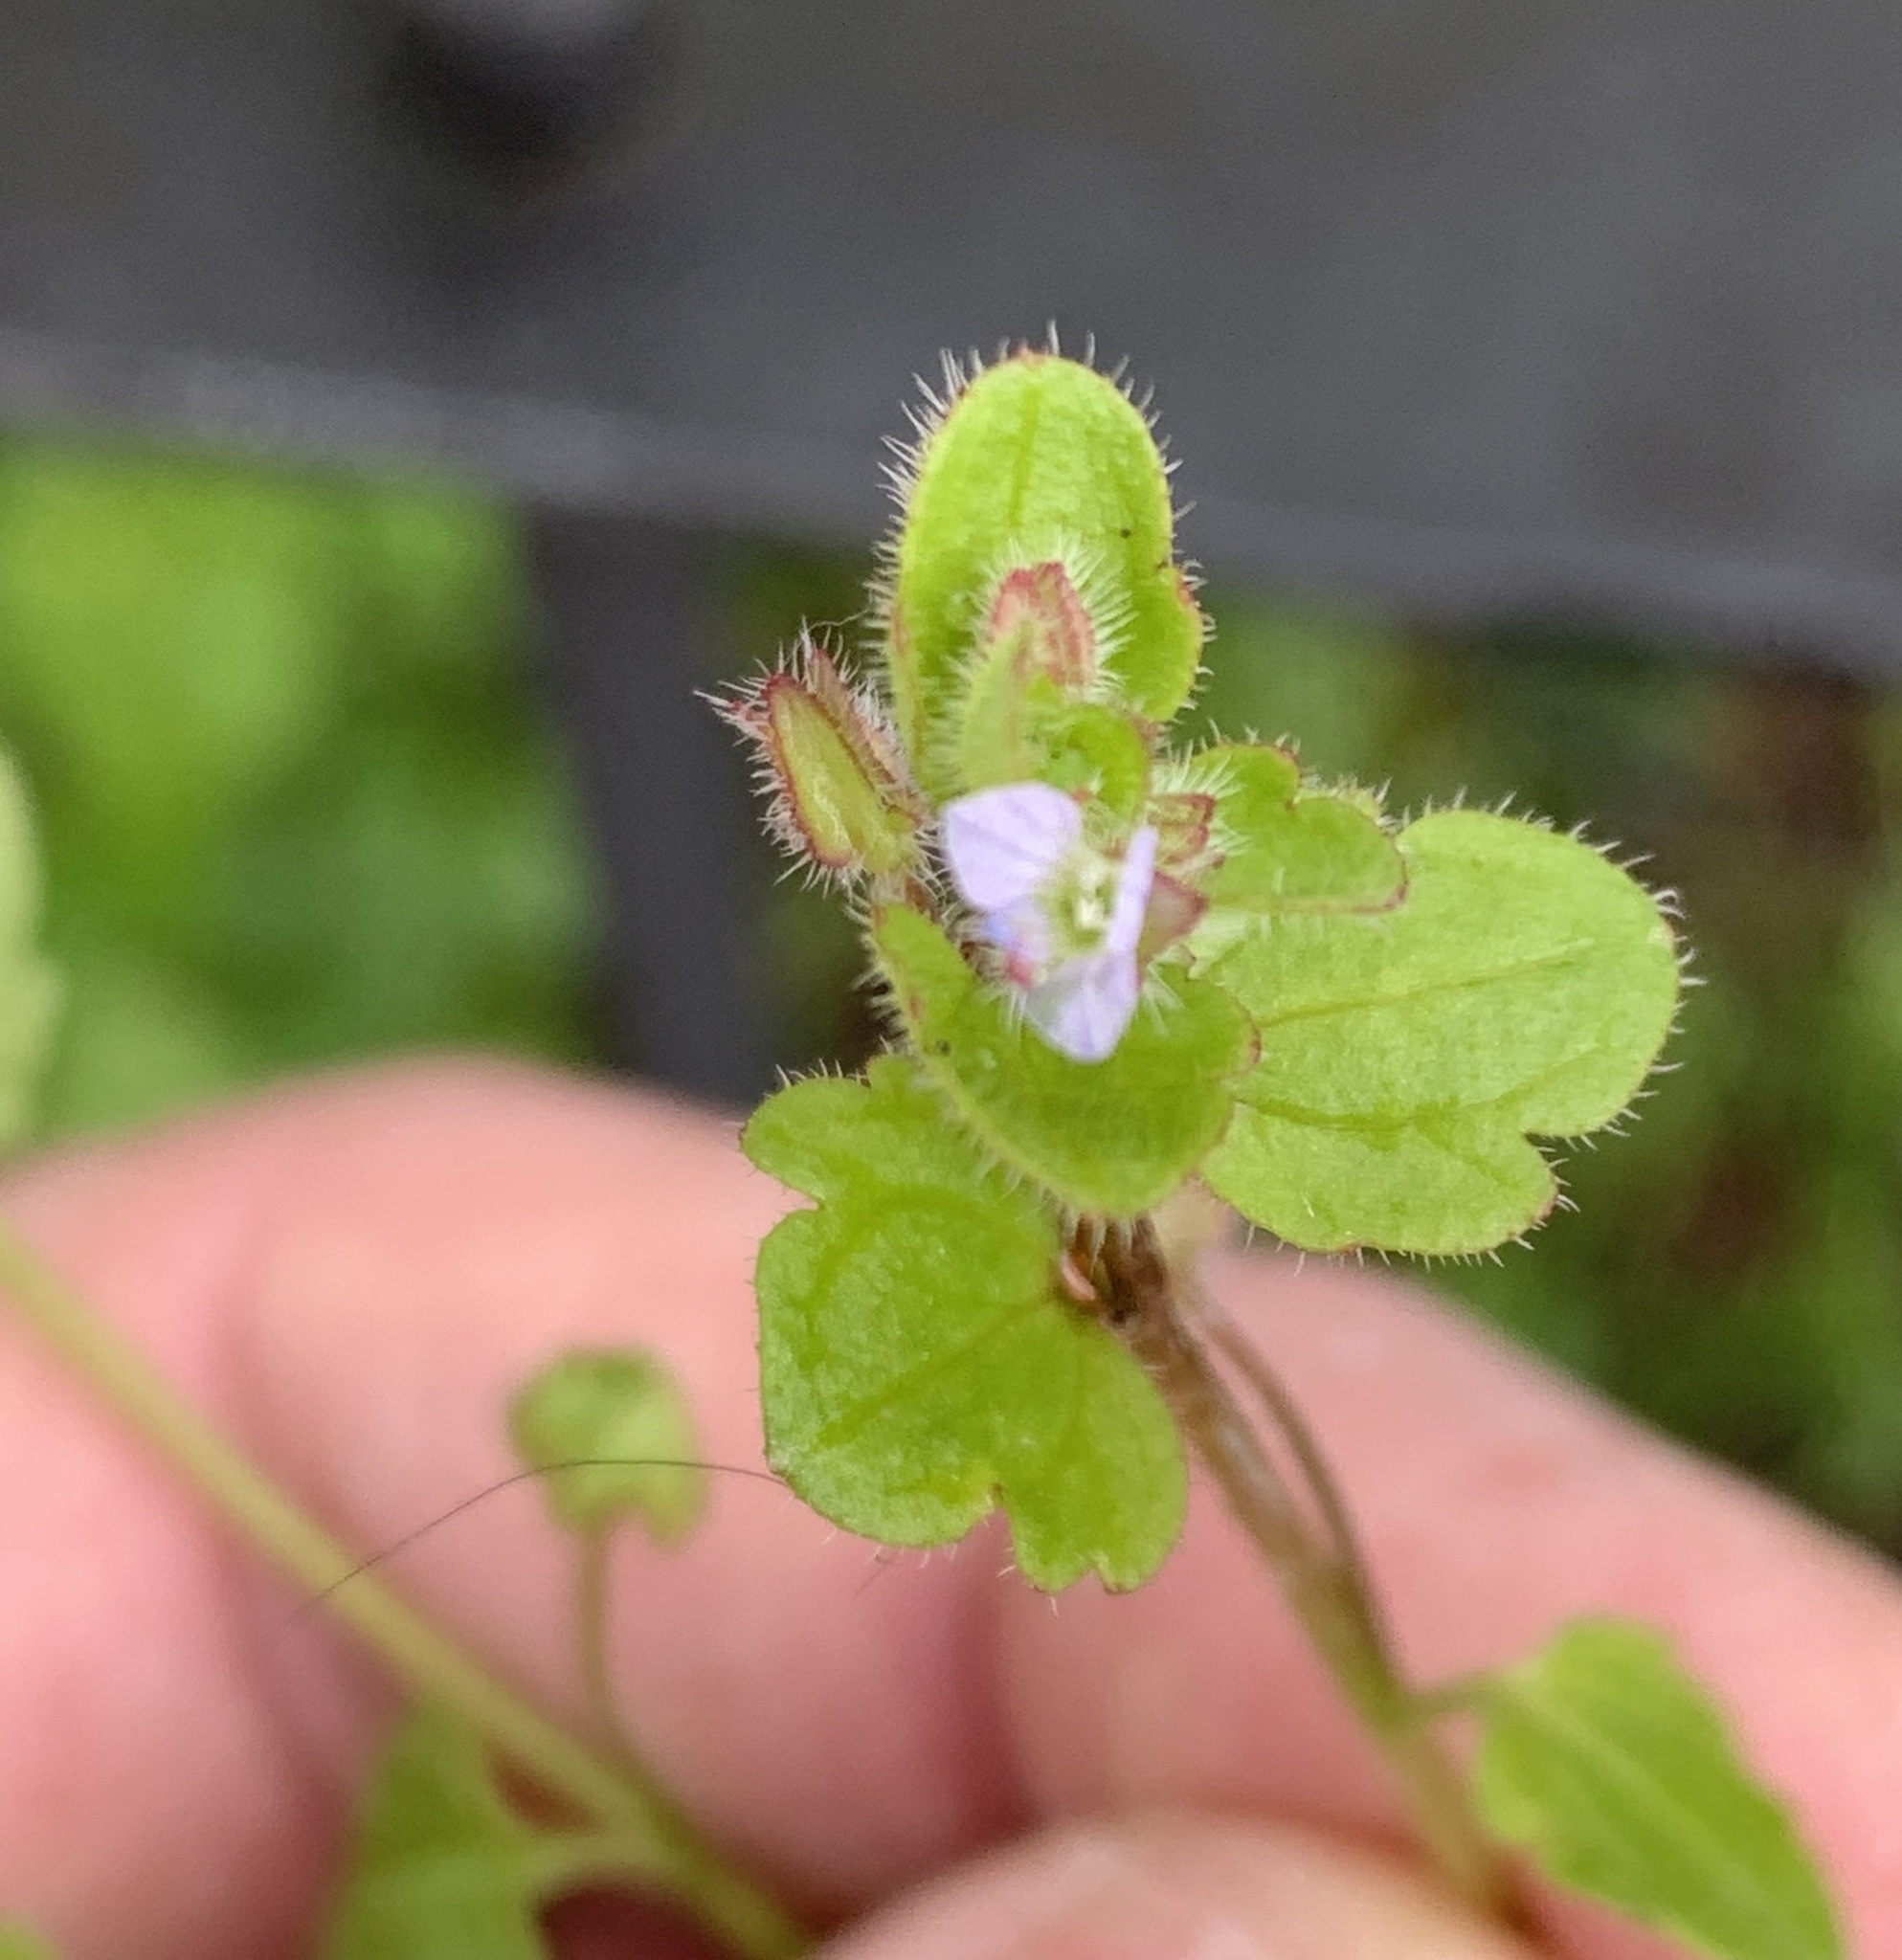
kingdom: Plantae
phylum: Tracheophyta
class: Magnoliopsida
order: Lamiales
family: Plantaginaceae
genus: Veronica
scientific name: Veronica sublobata
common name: False ivy-leaved speedwell
